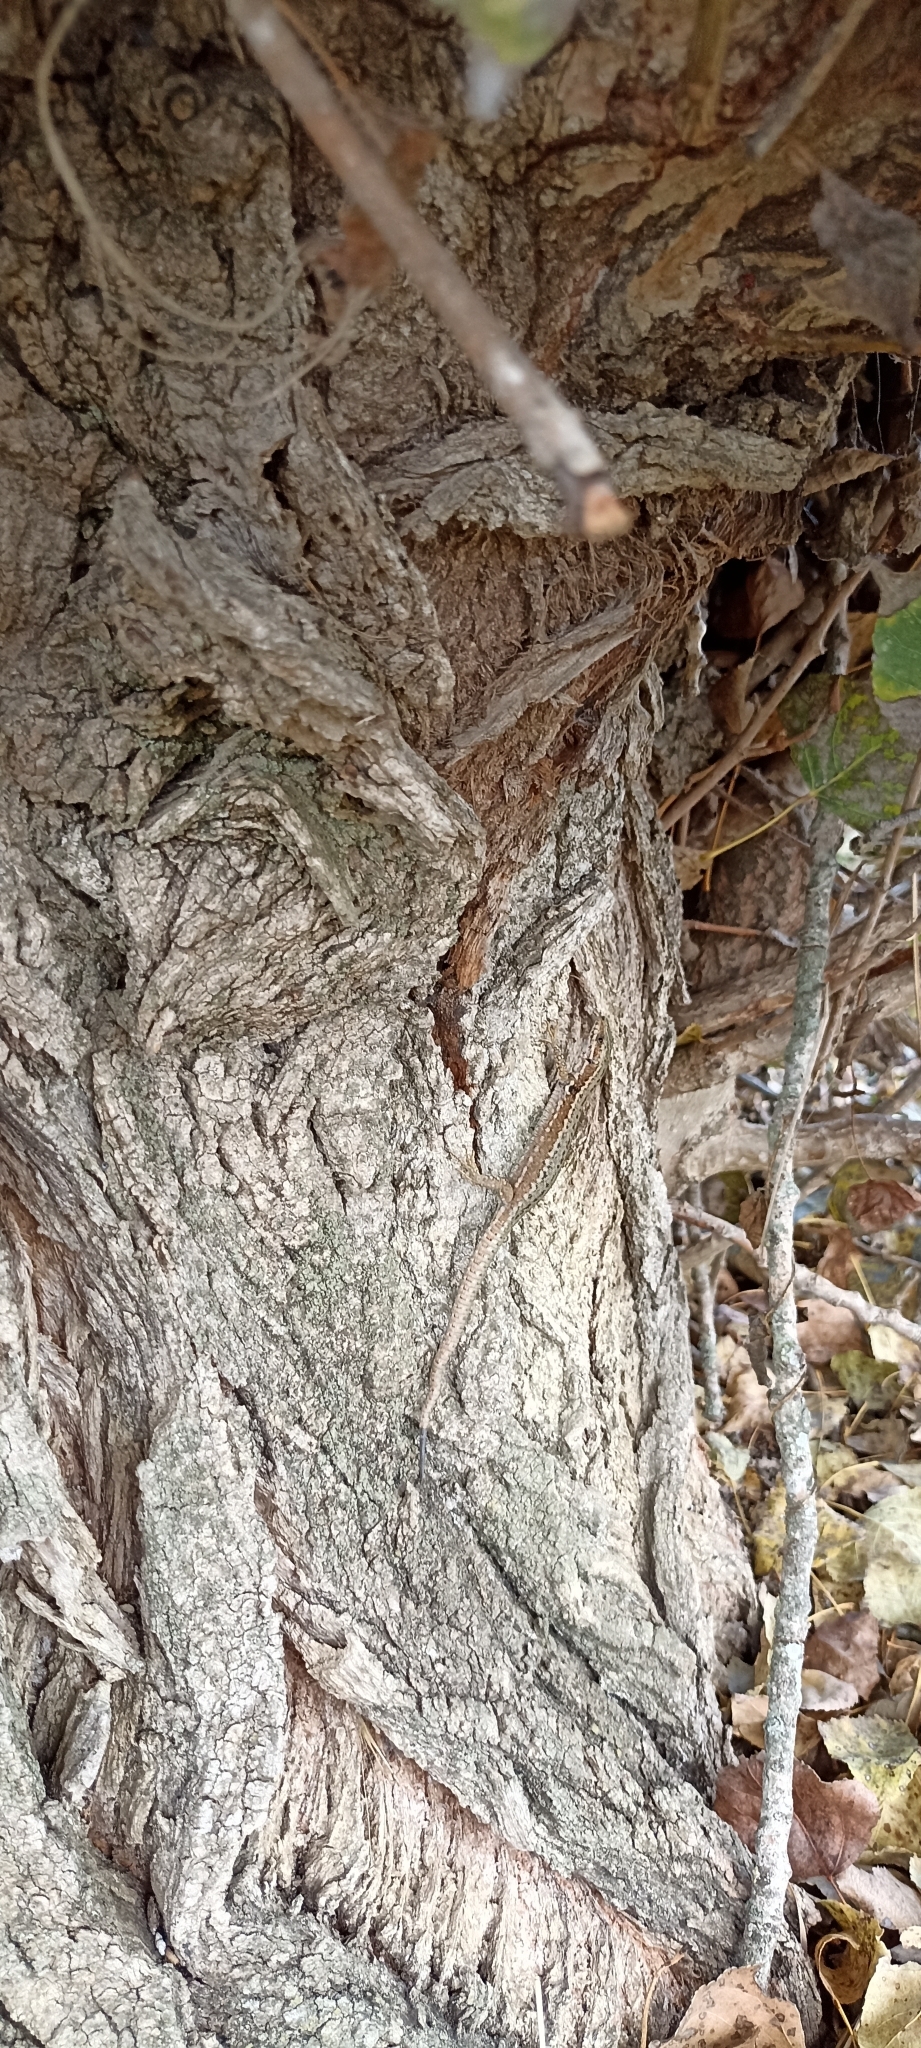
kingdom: Animalia
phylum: Chordata
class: Squamata
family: Lacertidae
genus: Podarcis
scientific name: Podarcis muralis
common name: Common wall lizard
